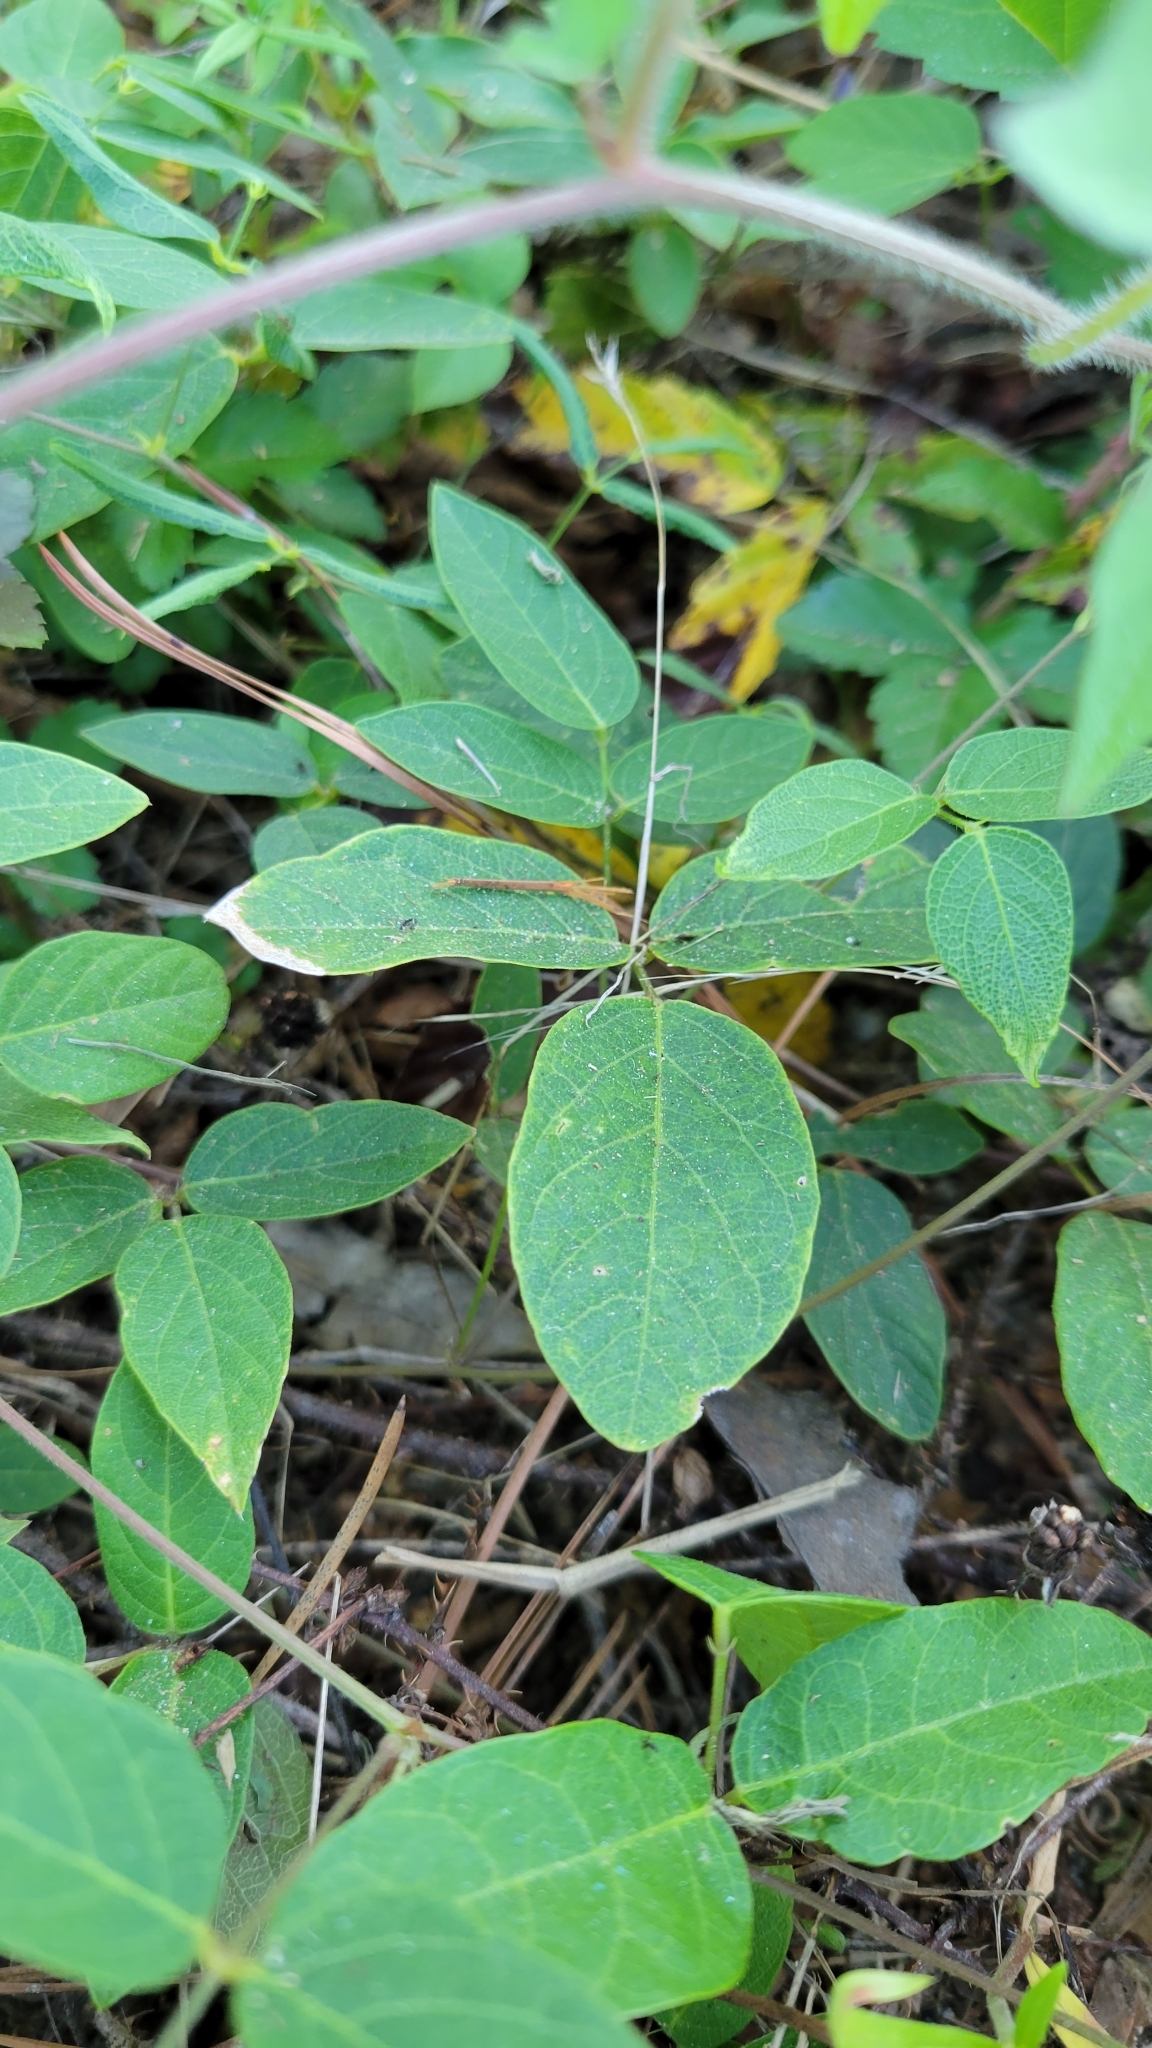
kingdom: Plantae
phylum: Tracheophyta
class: Magnoliopsida
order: Fabales
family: Fabaceae
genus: Centrosema
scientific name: Centrosema virginianum
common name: Butterfly-pea
